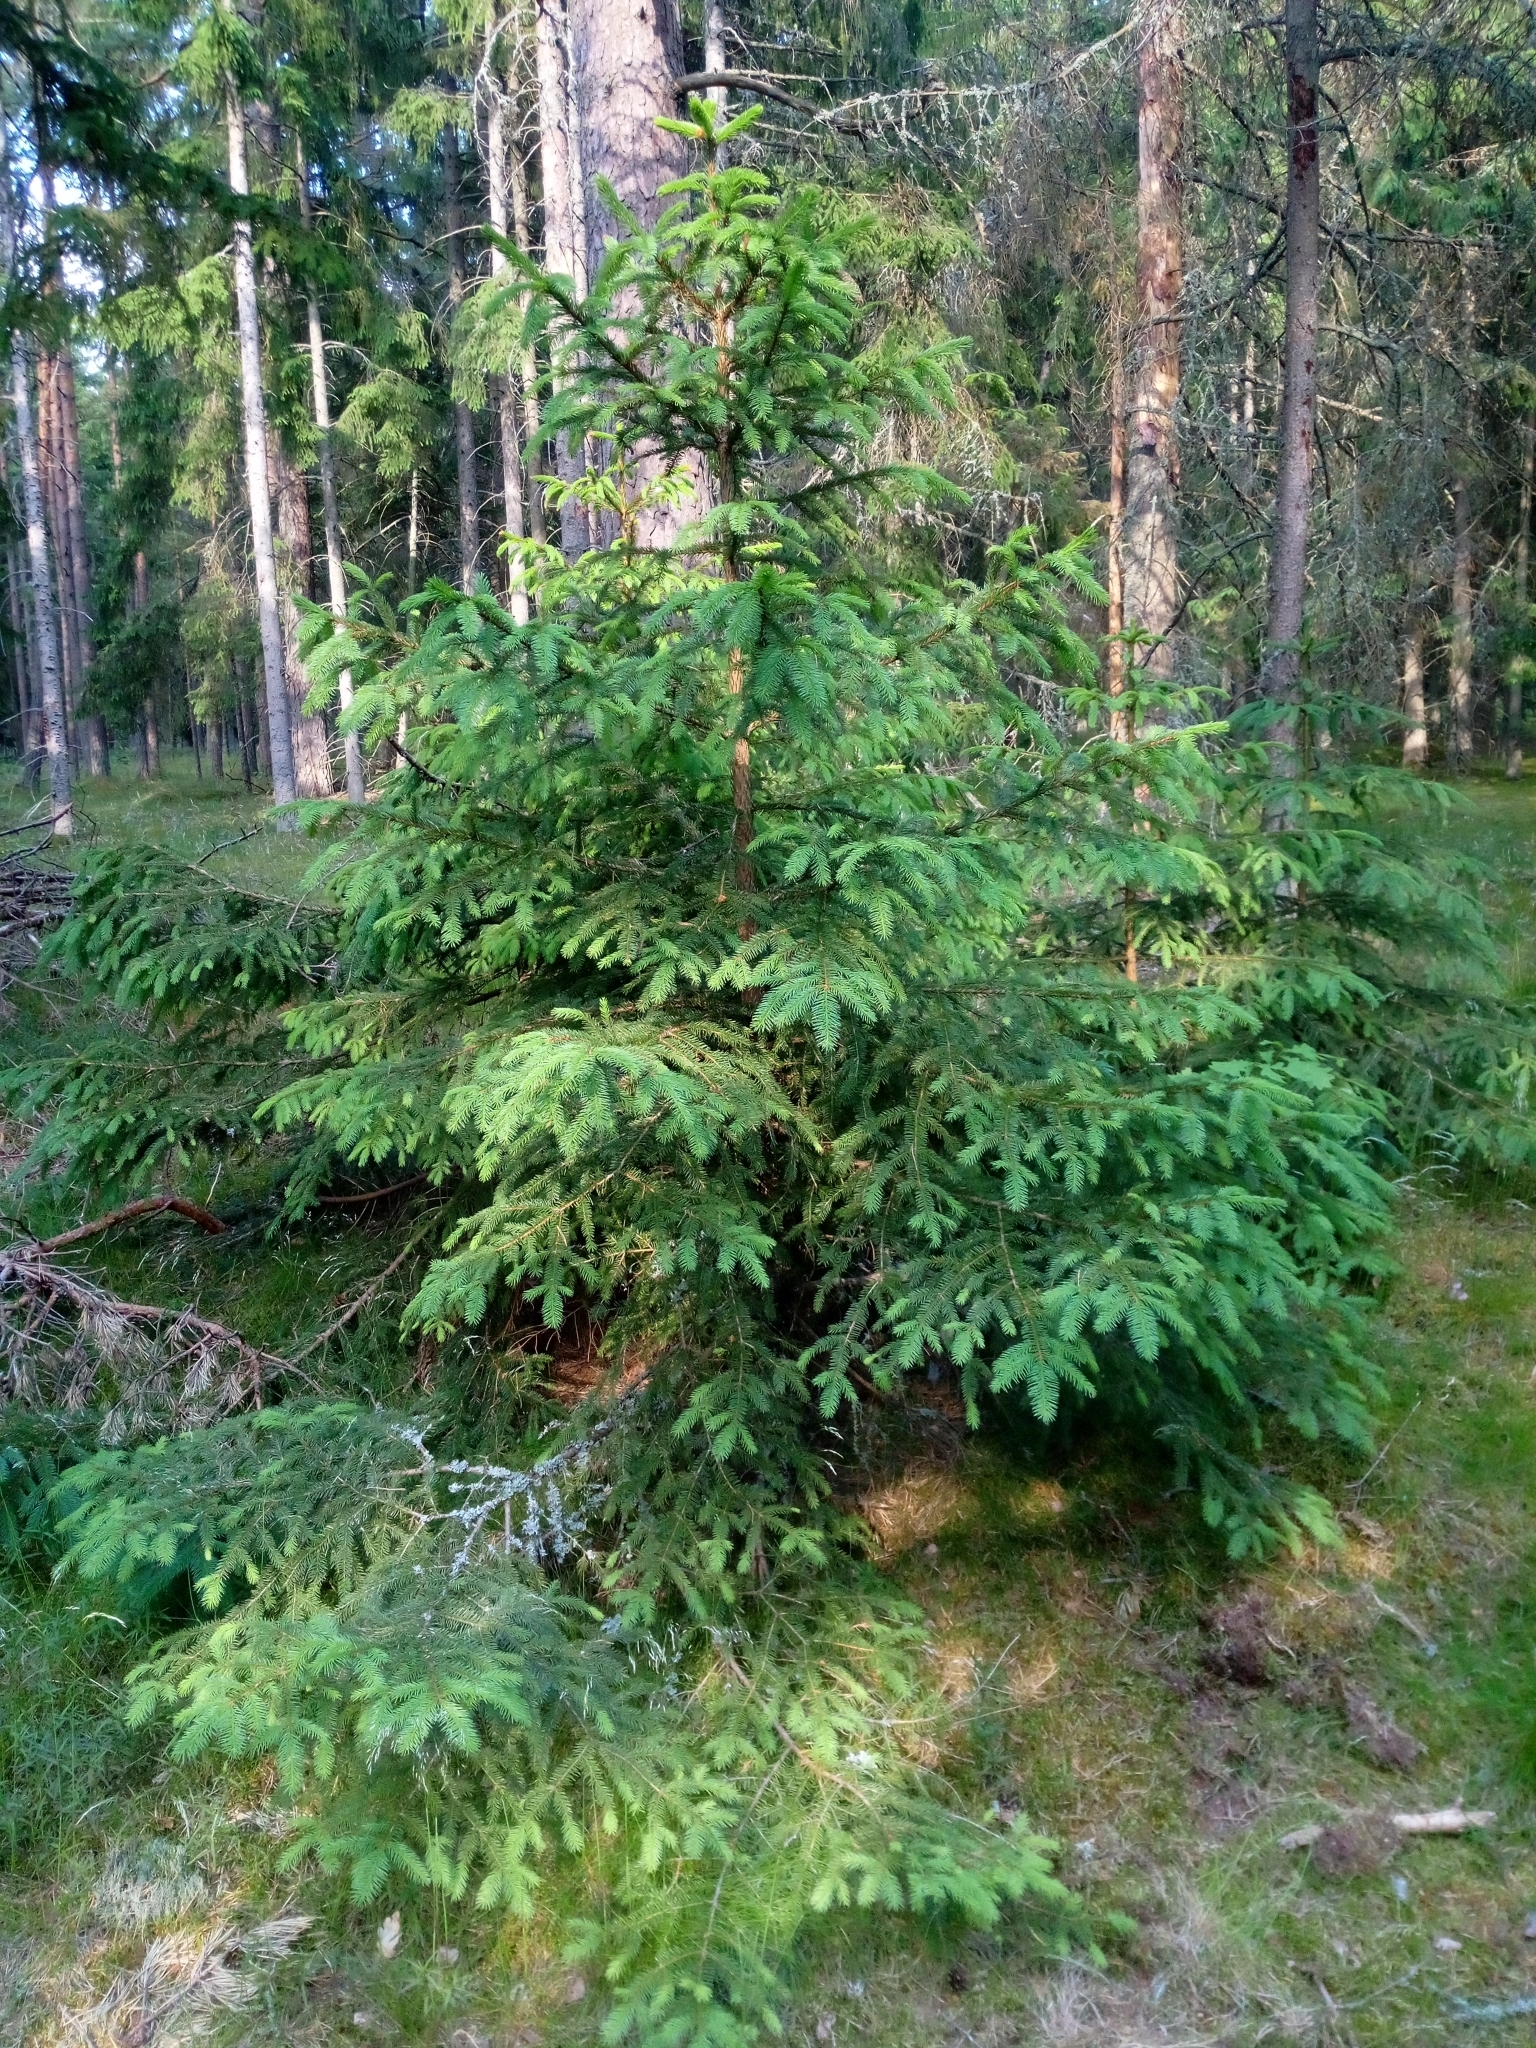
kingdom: Plantae
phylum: Tracheophyta
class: Pinopsida
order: Pinales
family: Pinaceae
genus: Picea
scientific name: Picea abies
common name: Norway spruce
